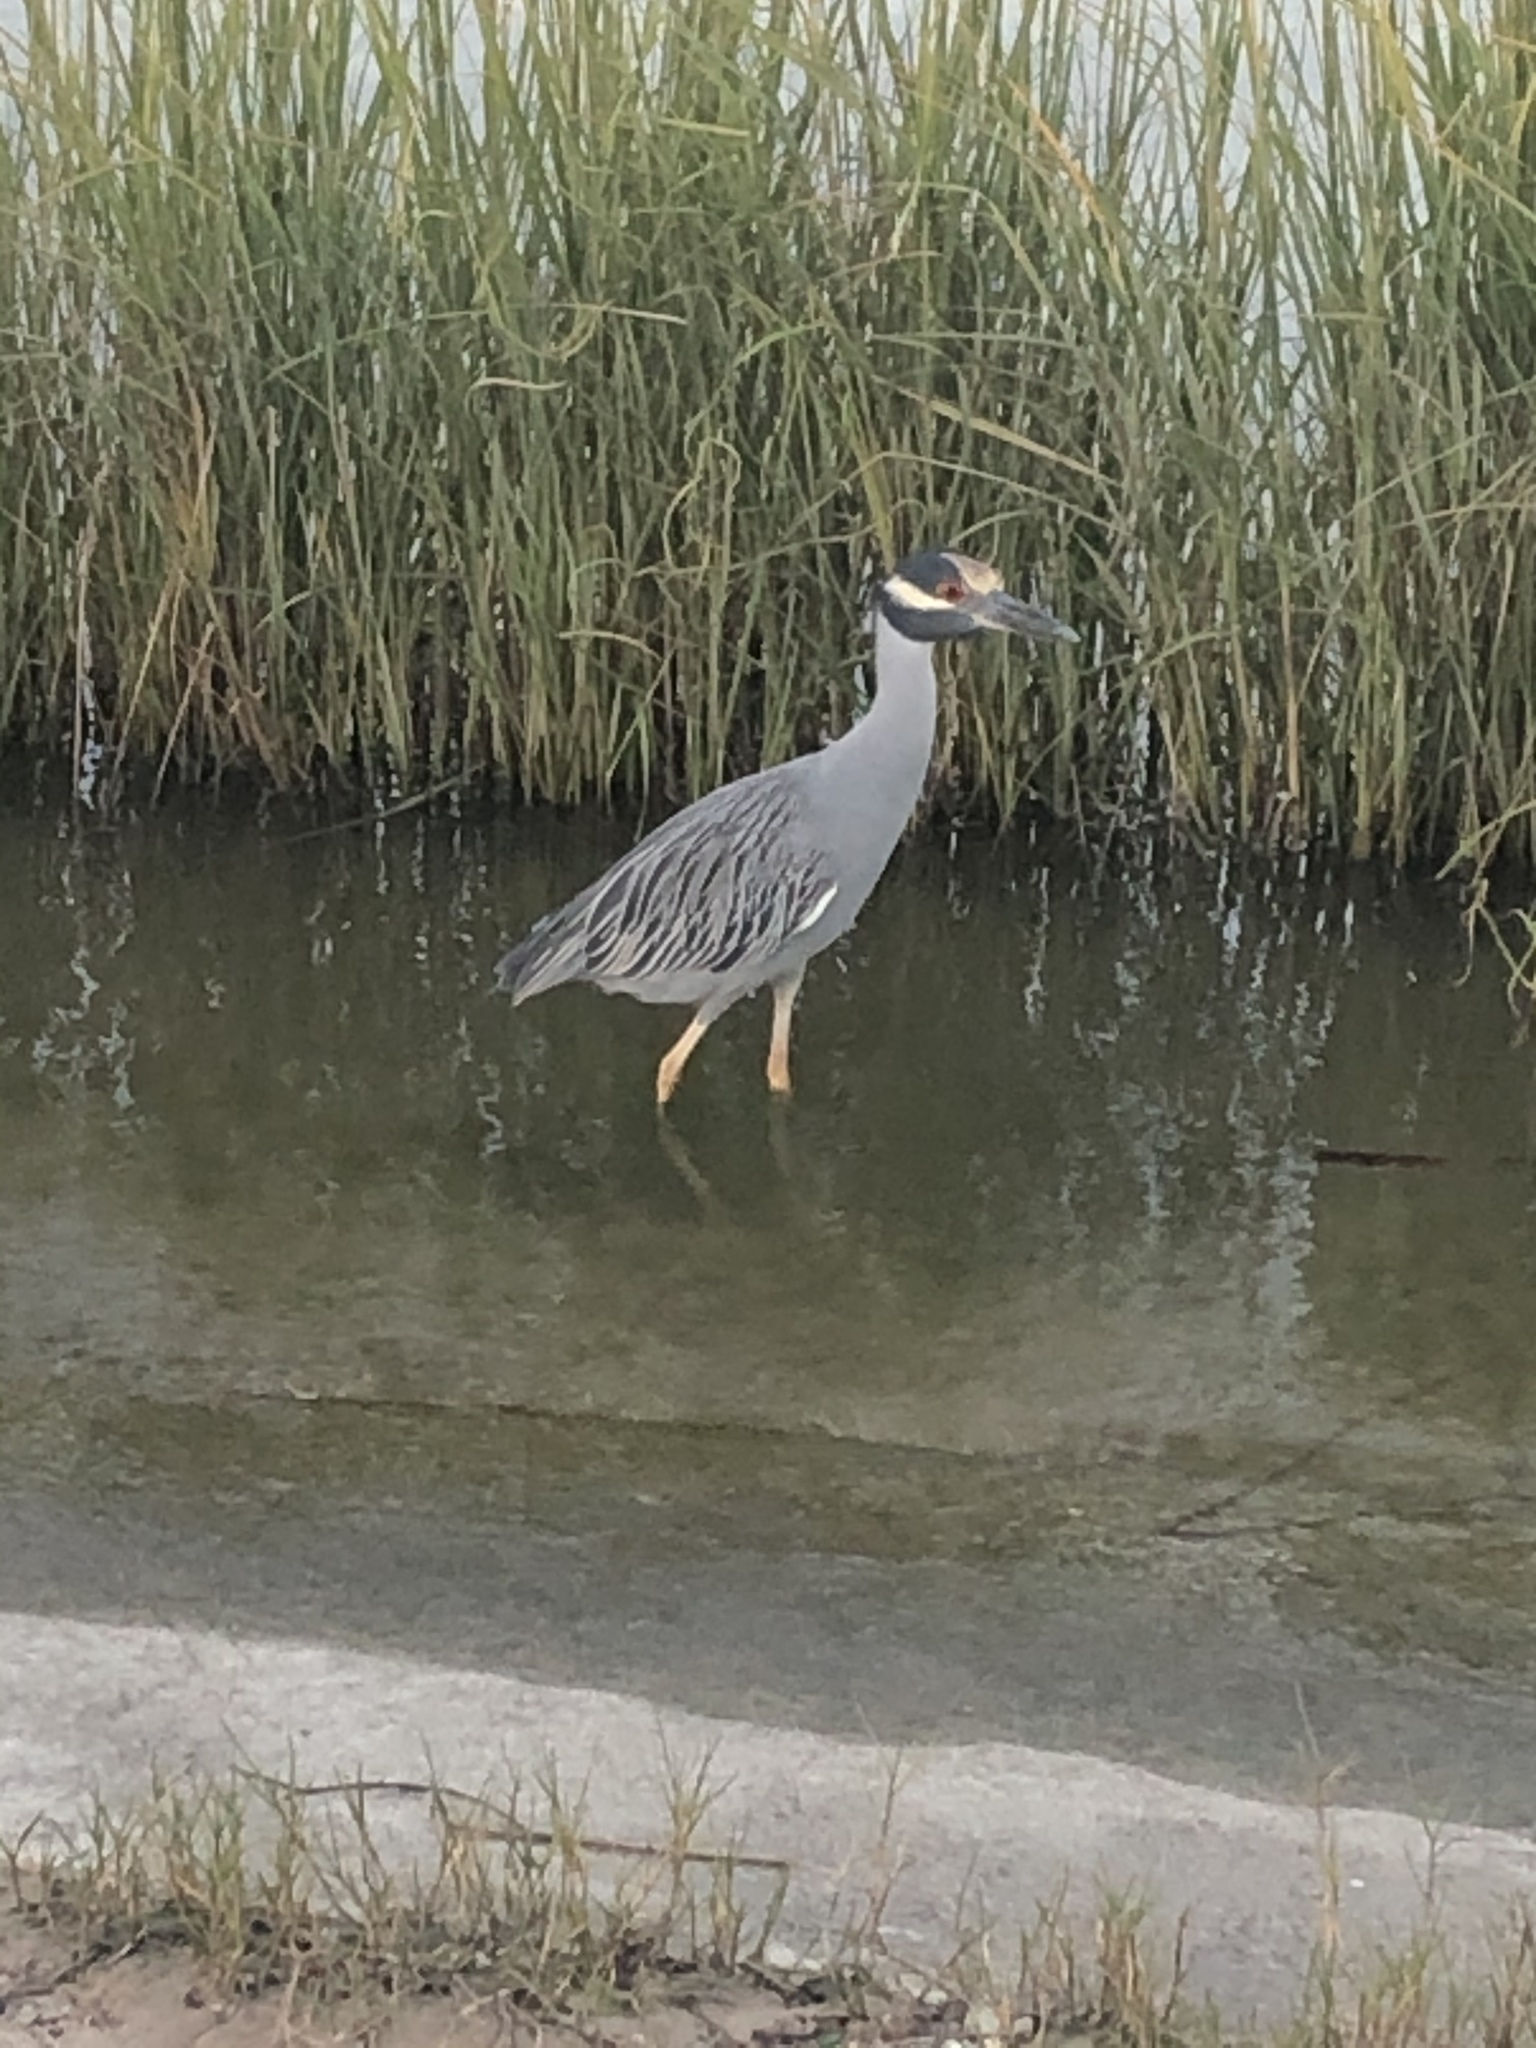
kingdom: Animalia
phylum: Chordata
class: Aves
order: Pelecaniformes
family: Ardeidae
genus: Nyctanassa
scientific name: Nyctanassa violacea
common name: Yellow-crowned night heron
